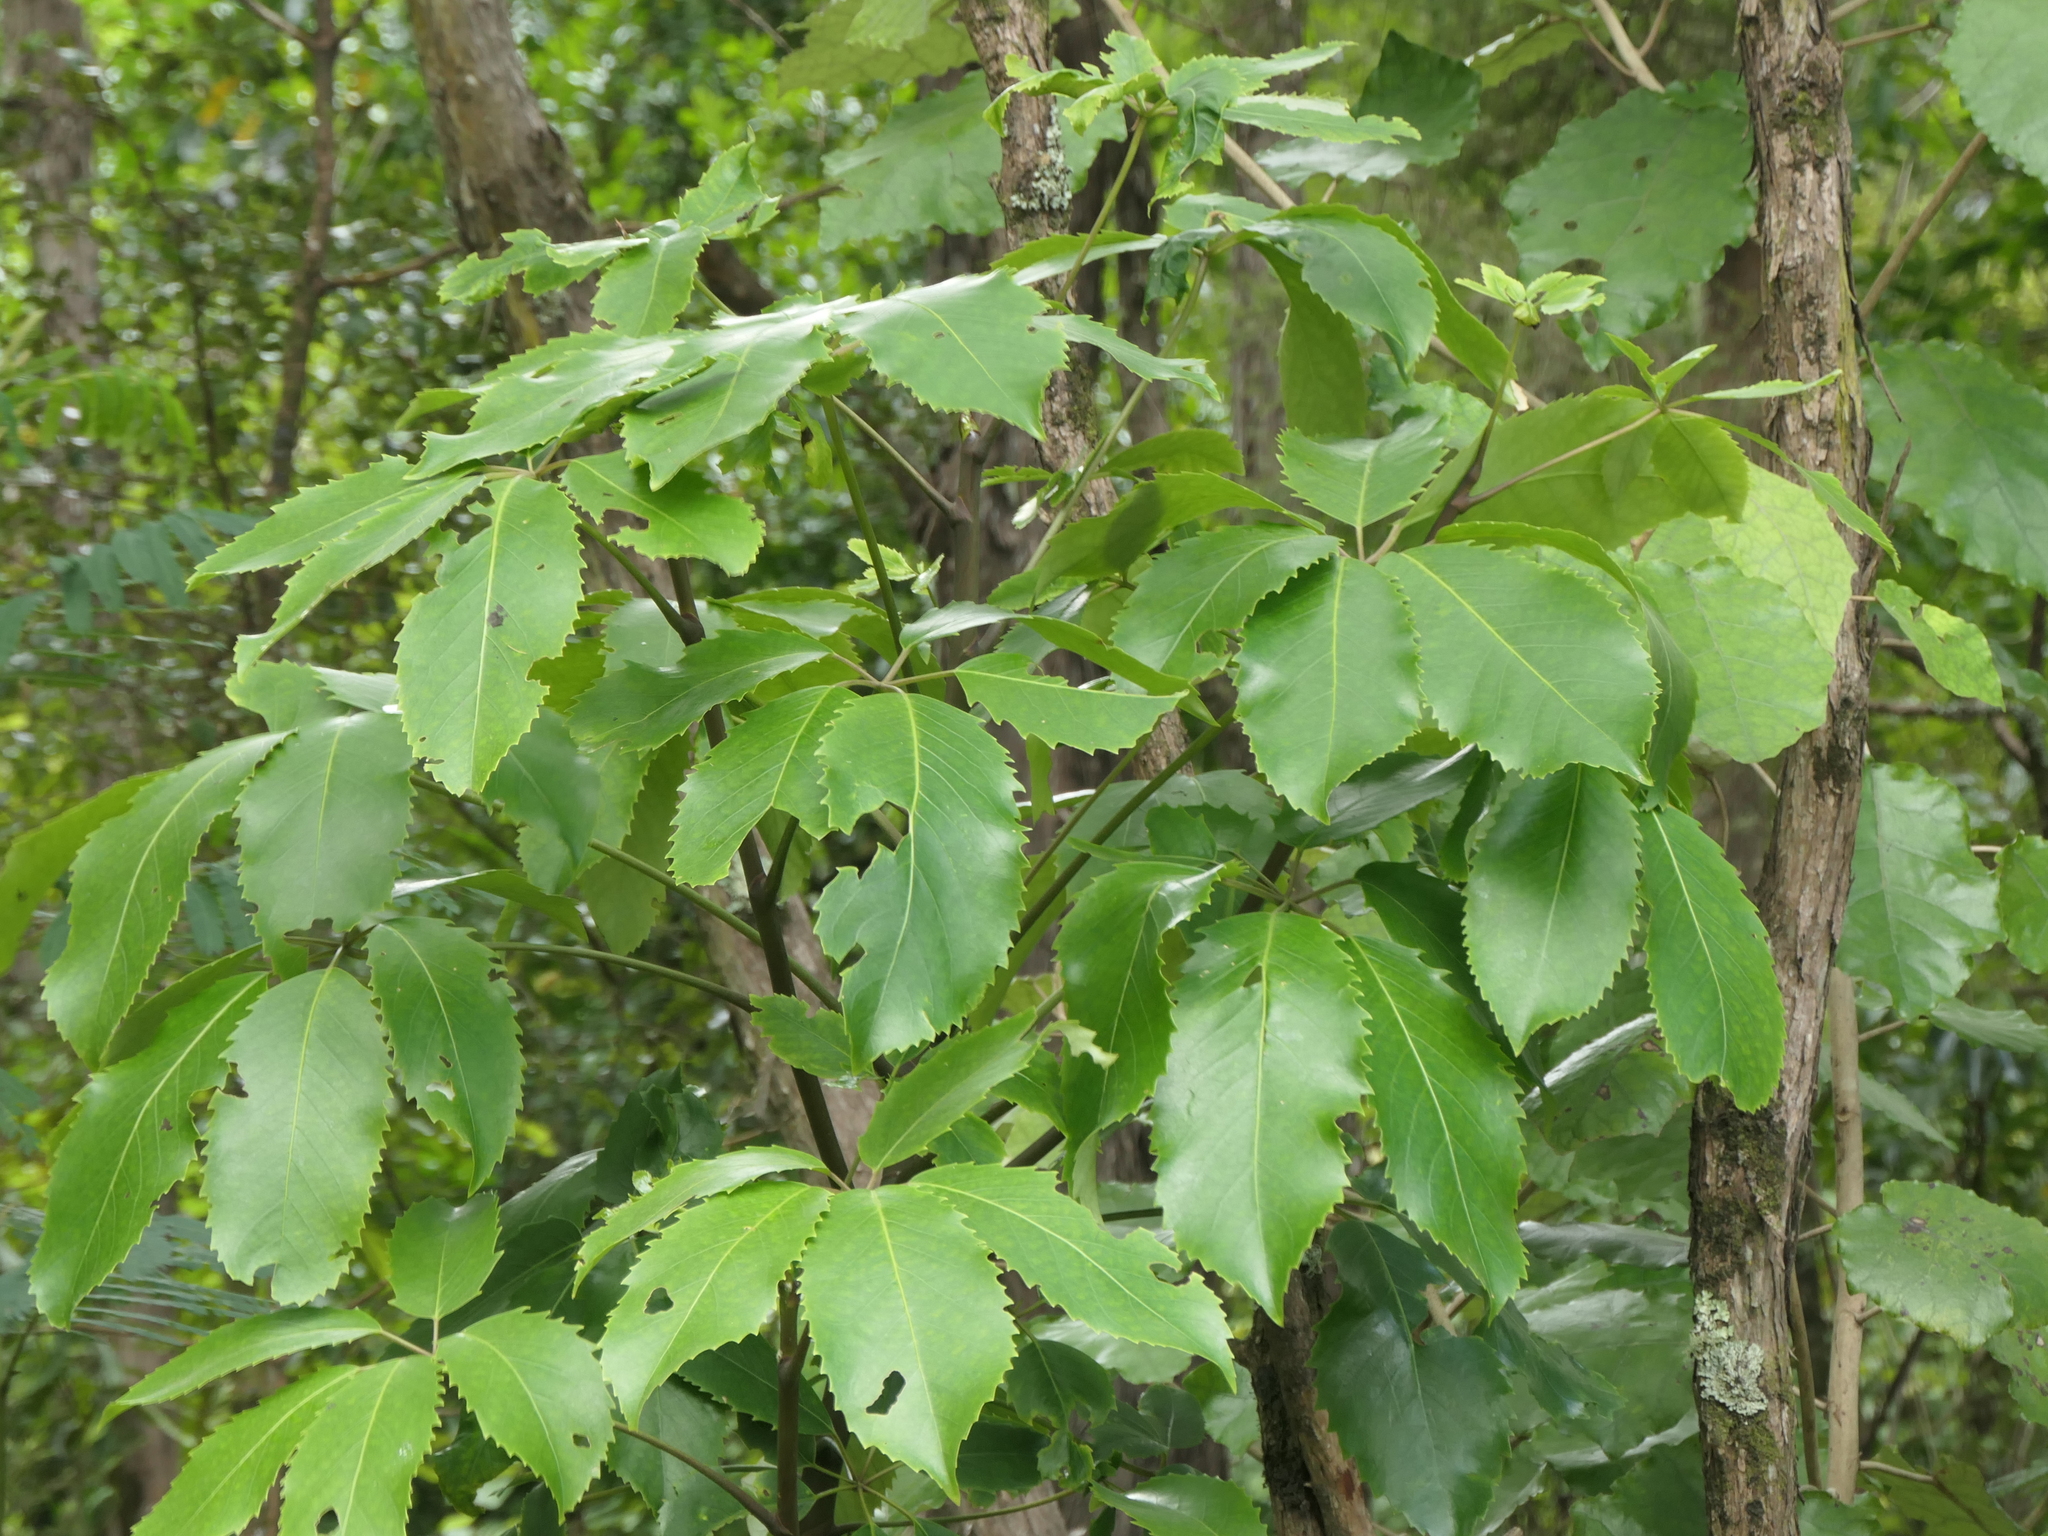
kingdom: Plantae
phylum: Tracheophyta
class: Magnoliopsida
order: Apiales
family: Araliaceae
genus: Neopanax
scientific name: Neopanax arboreus
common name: Five-fingers
